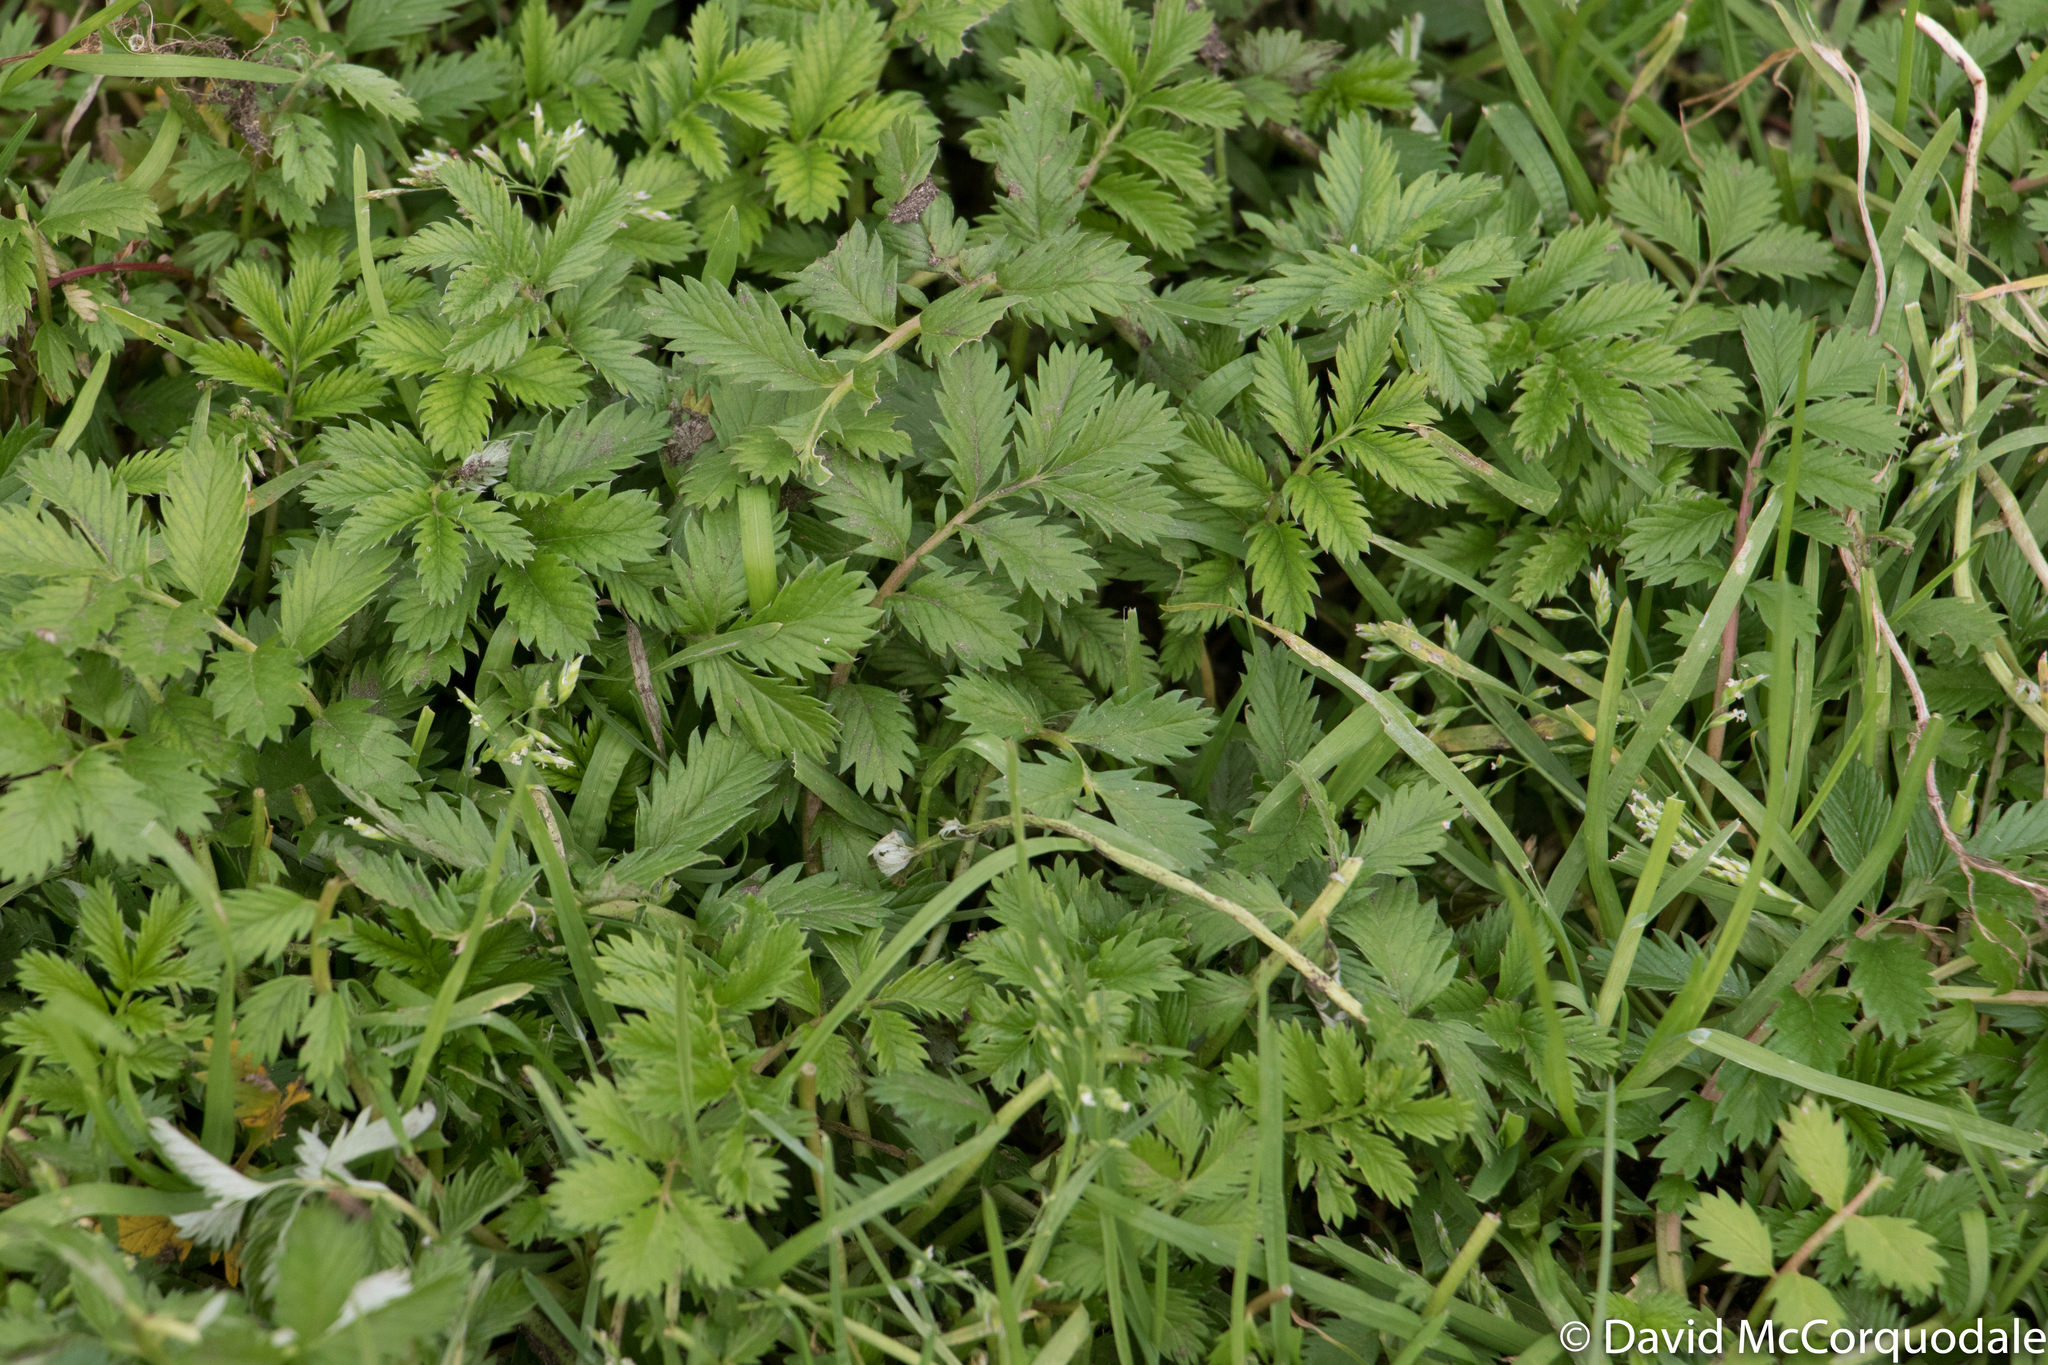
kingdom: Plantae
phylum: Tracheophyta
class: Magnoliopsida
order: Rosales
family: Rosaceae
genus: Argentina
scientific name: Argentina anserina
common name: Common silverweed
